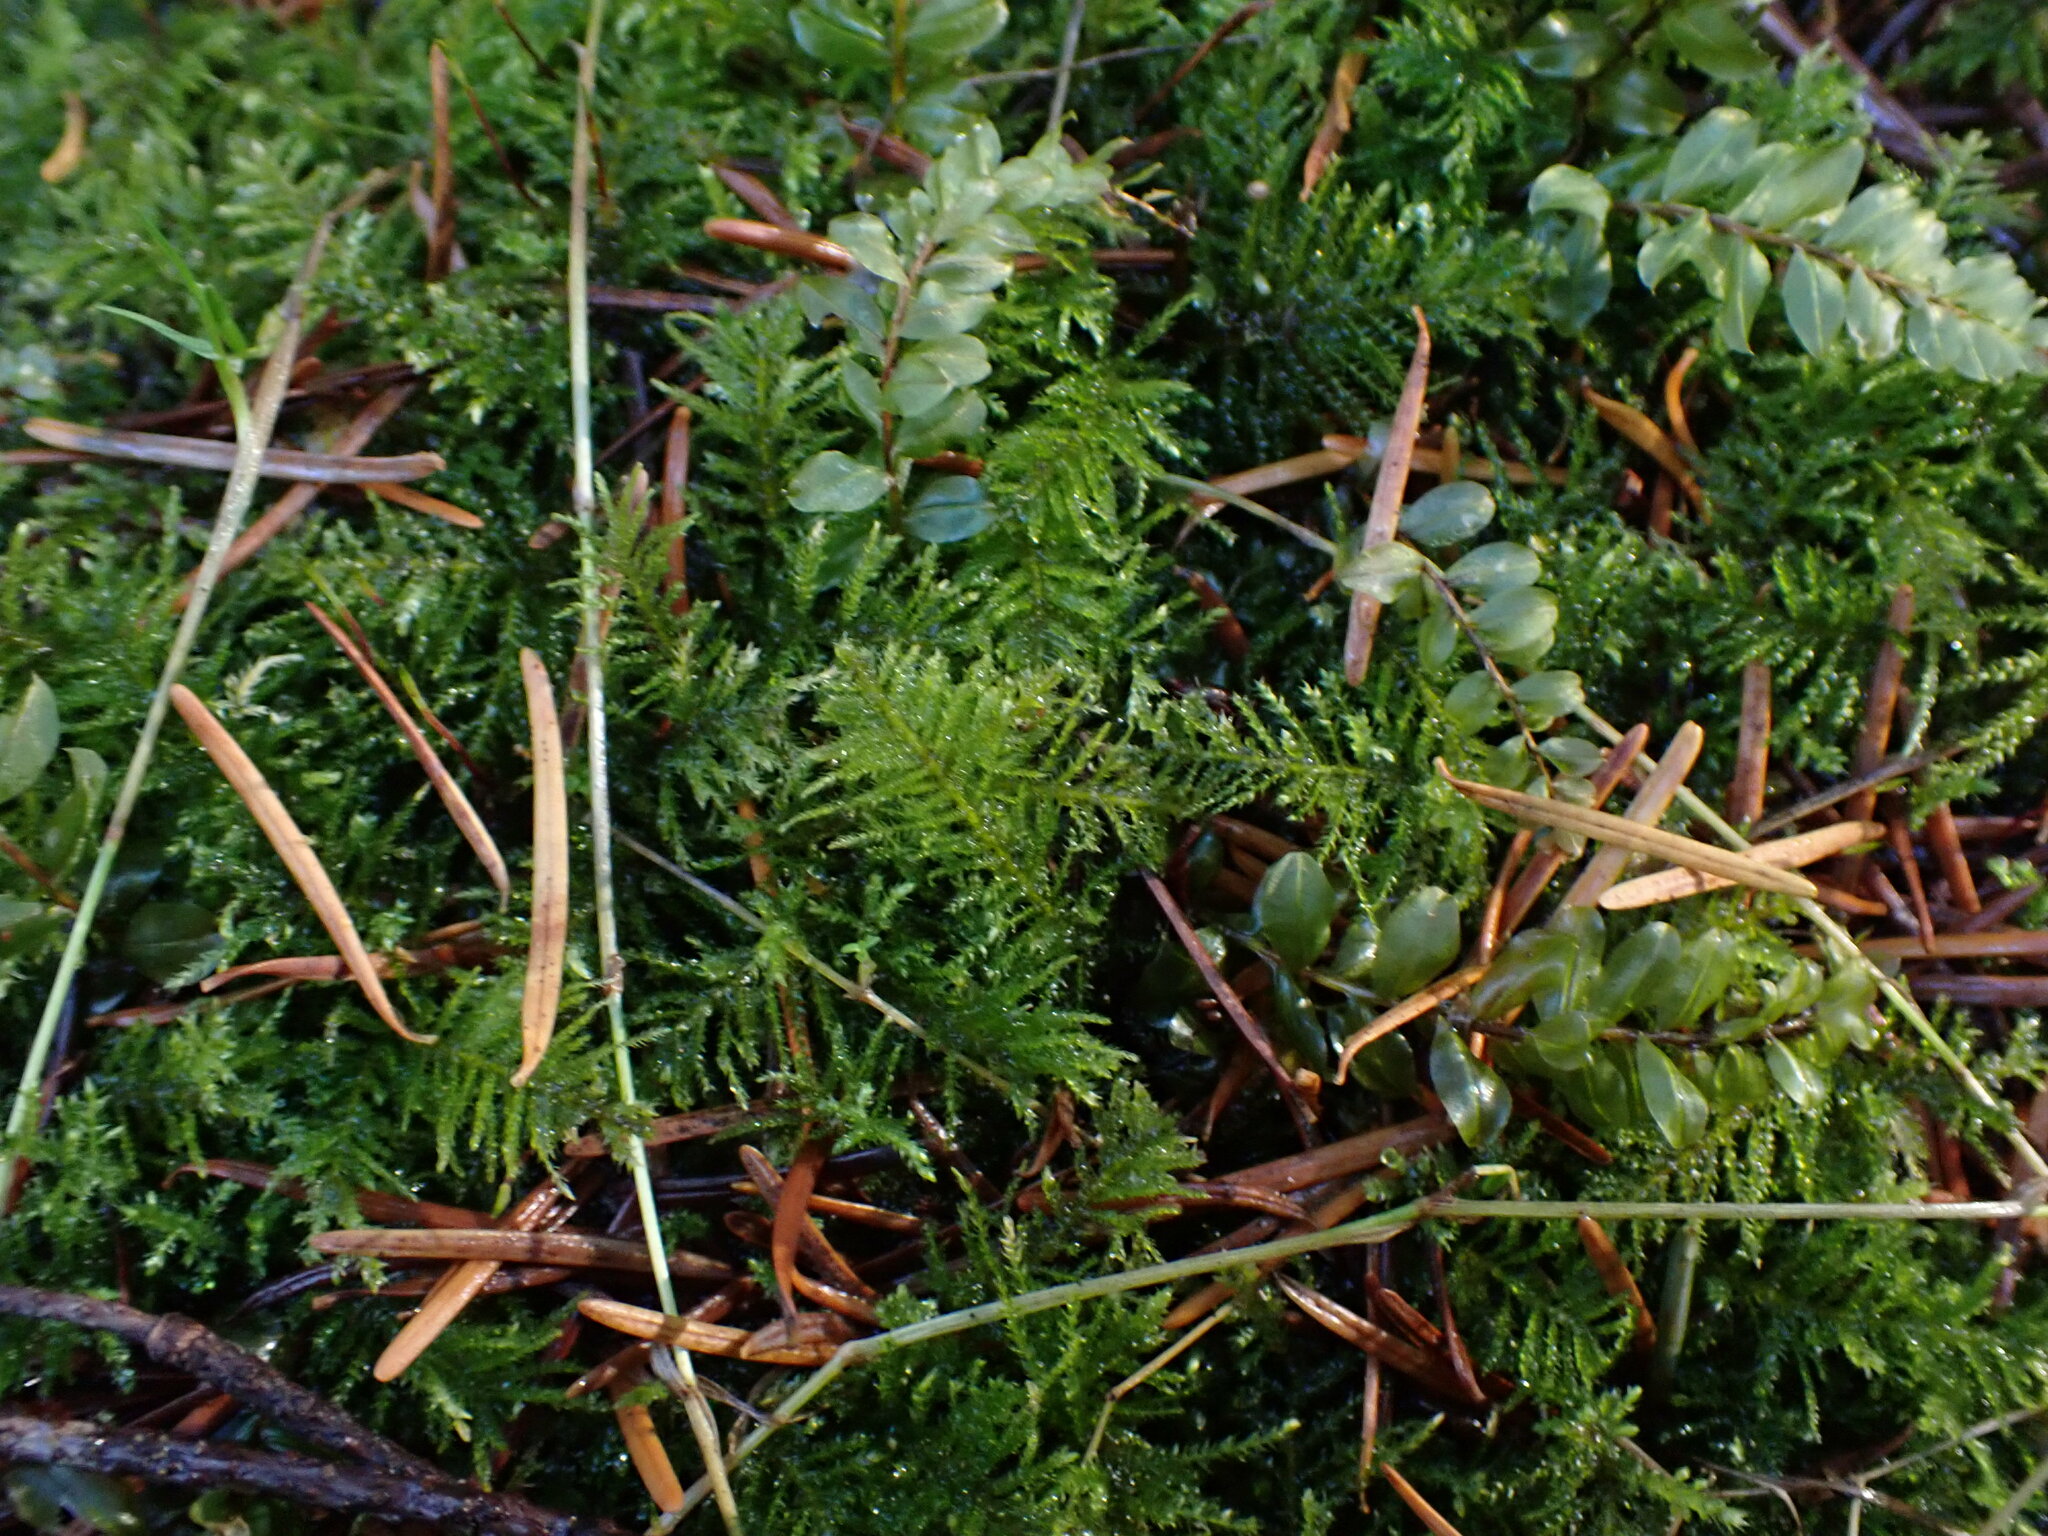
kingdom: Plantae
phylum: Bryophyta
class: Bryopsida
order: Hypnales
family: Brachytheciaceae
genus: Kindbergia
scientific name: Kindbergia oregana
